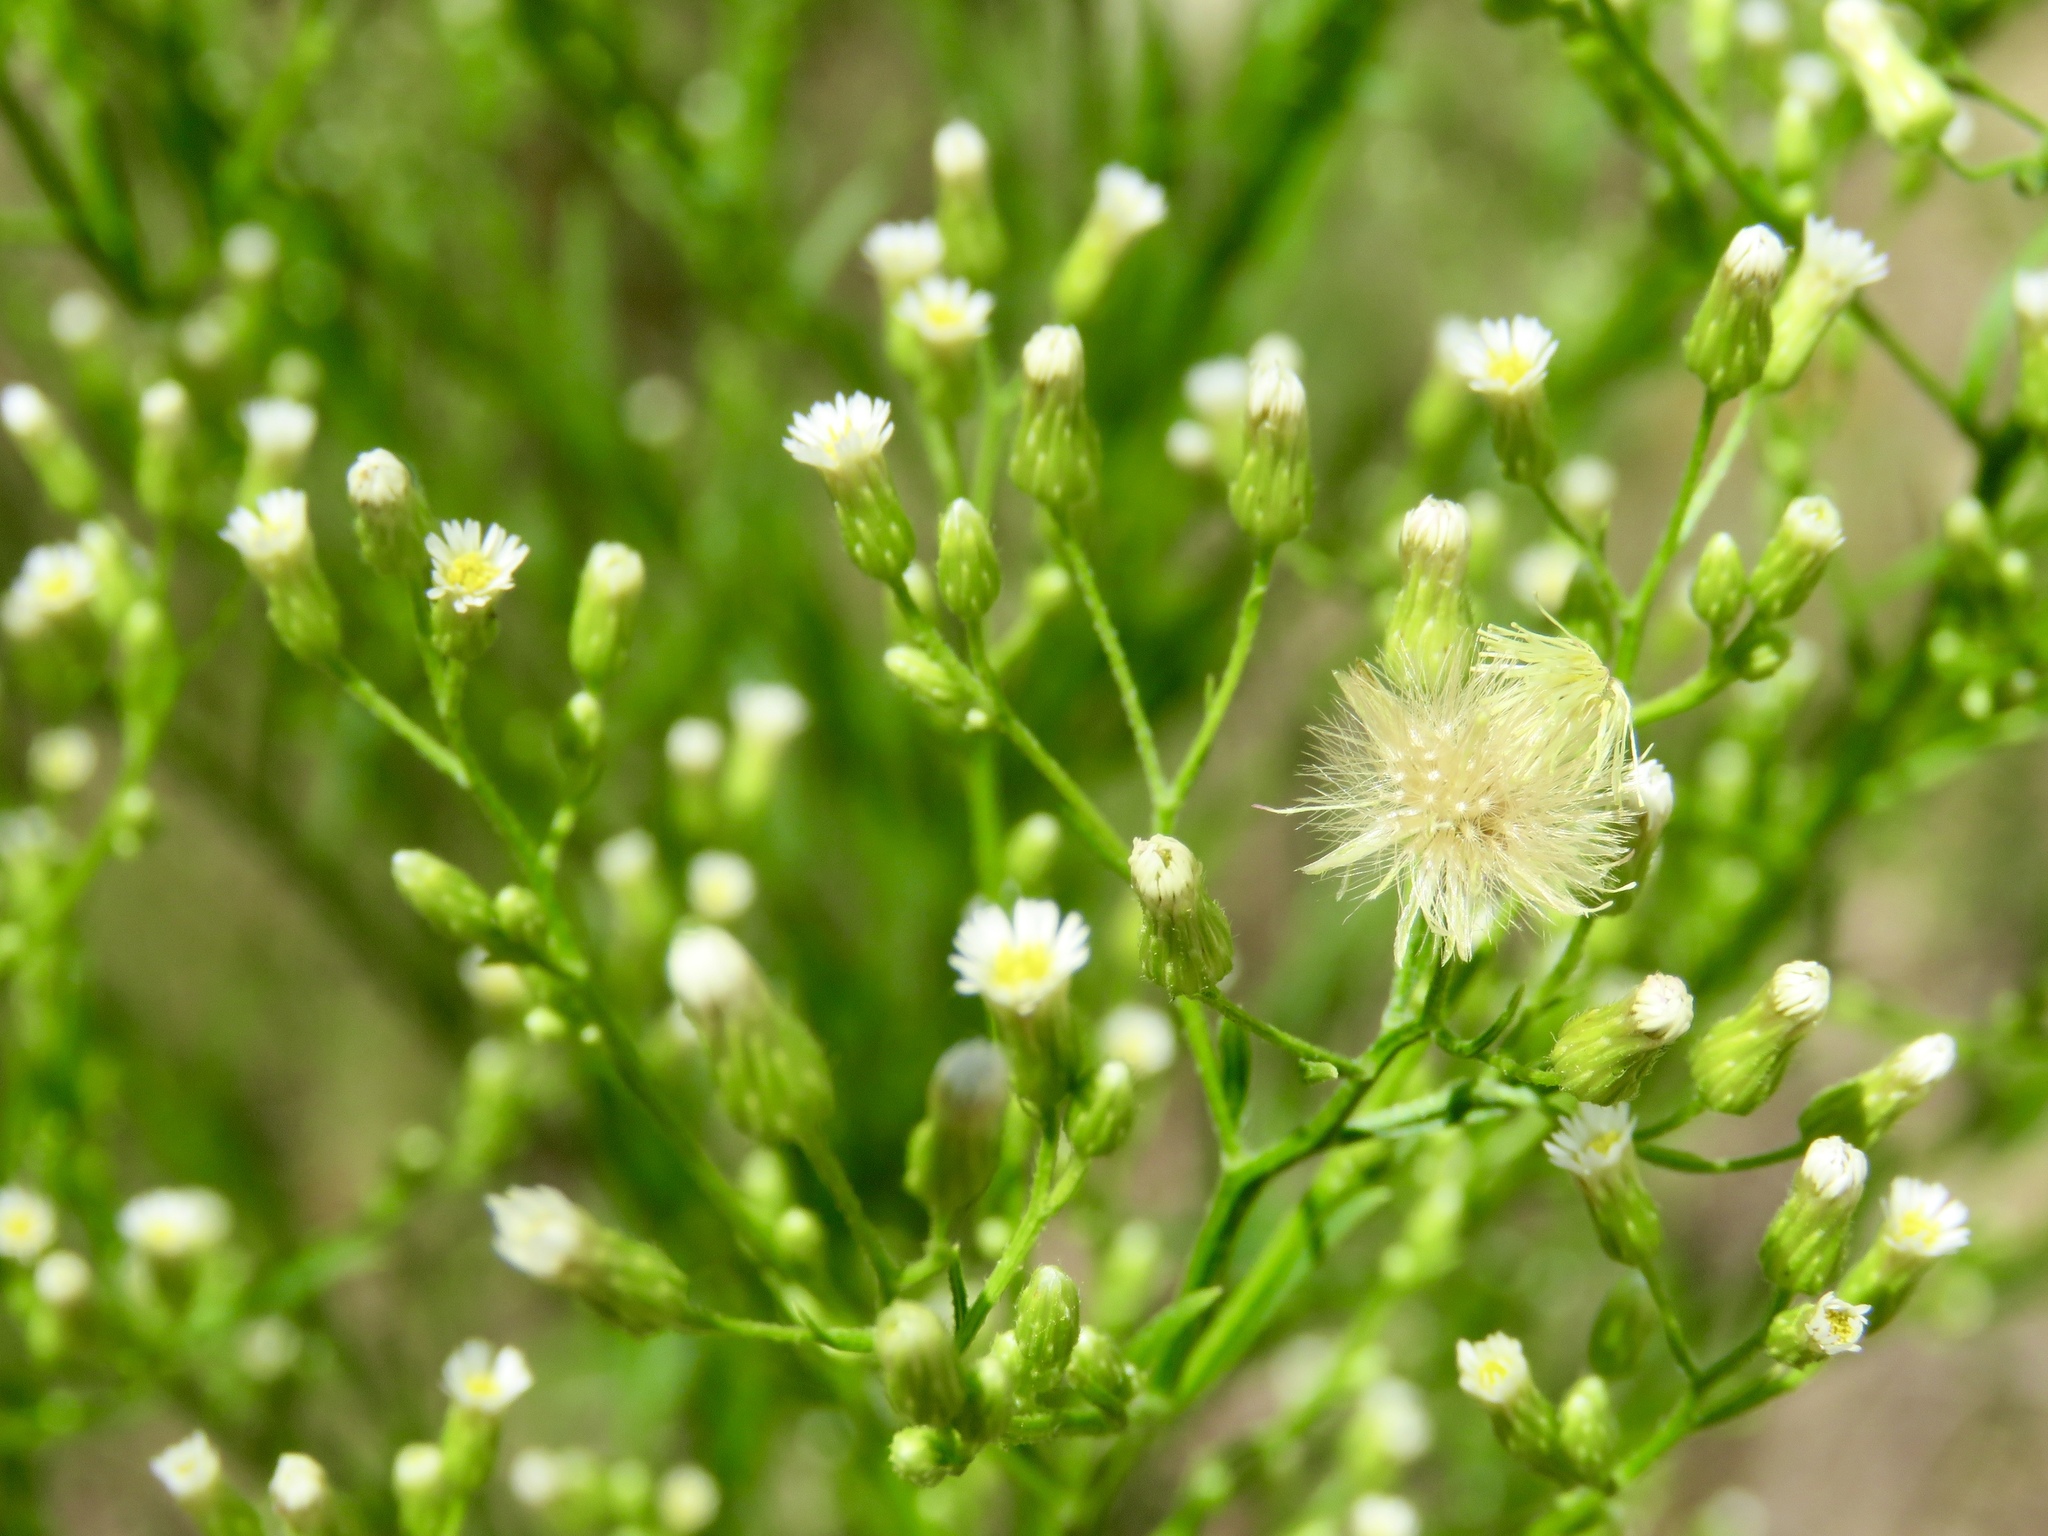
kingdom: Plantae
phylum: Tracheophyta
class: Magnoliopsida
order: Asterales
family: Asteraceae
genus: Erigeron
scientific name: Erigeron canadensis
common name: Canadian fleabane
